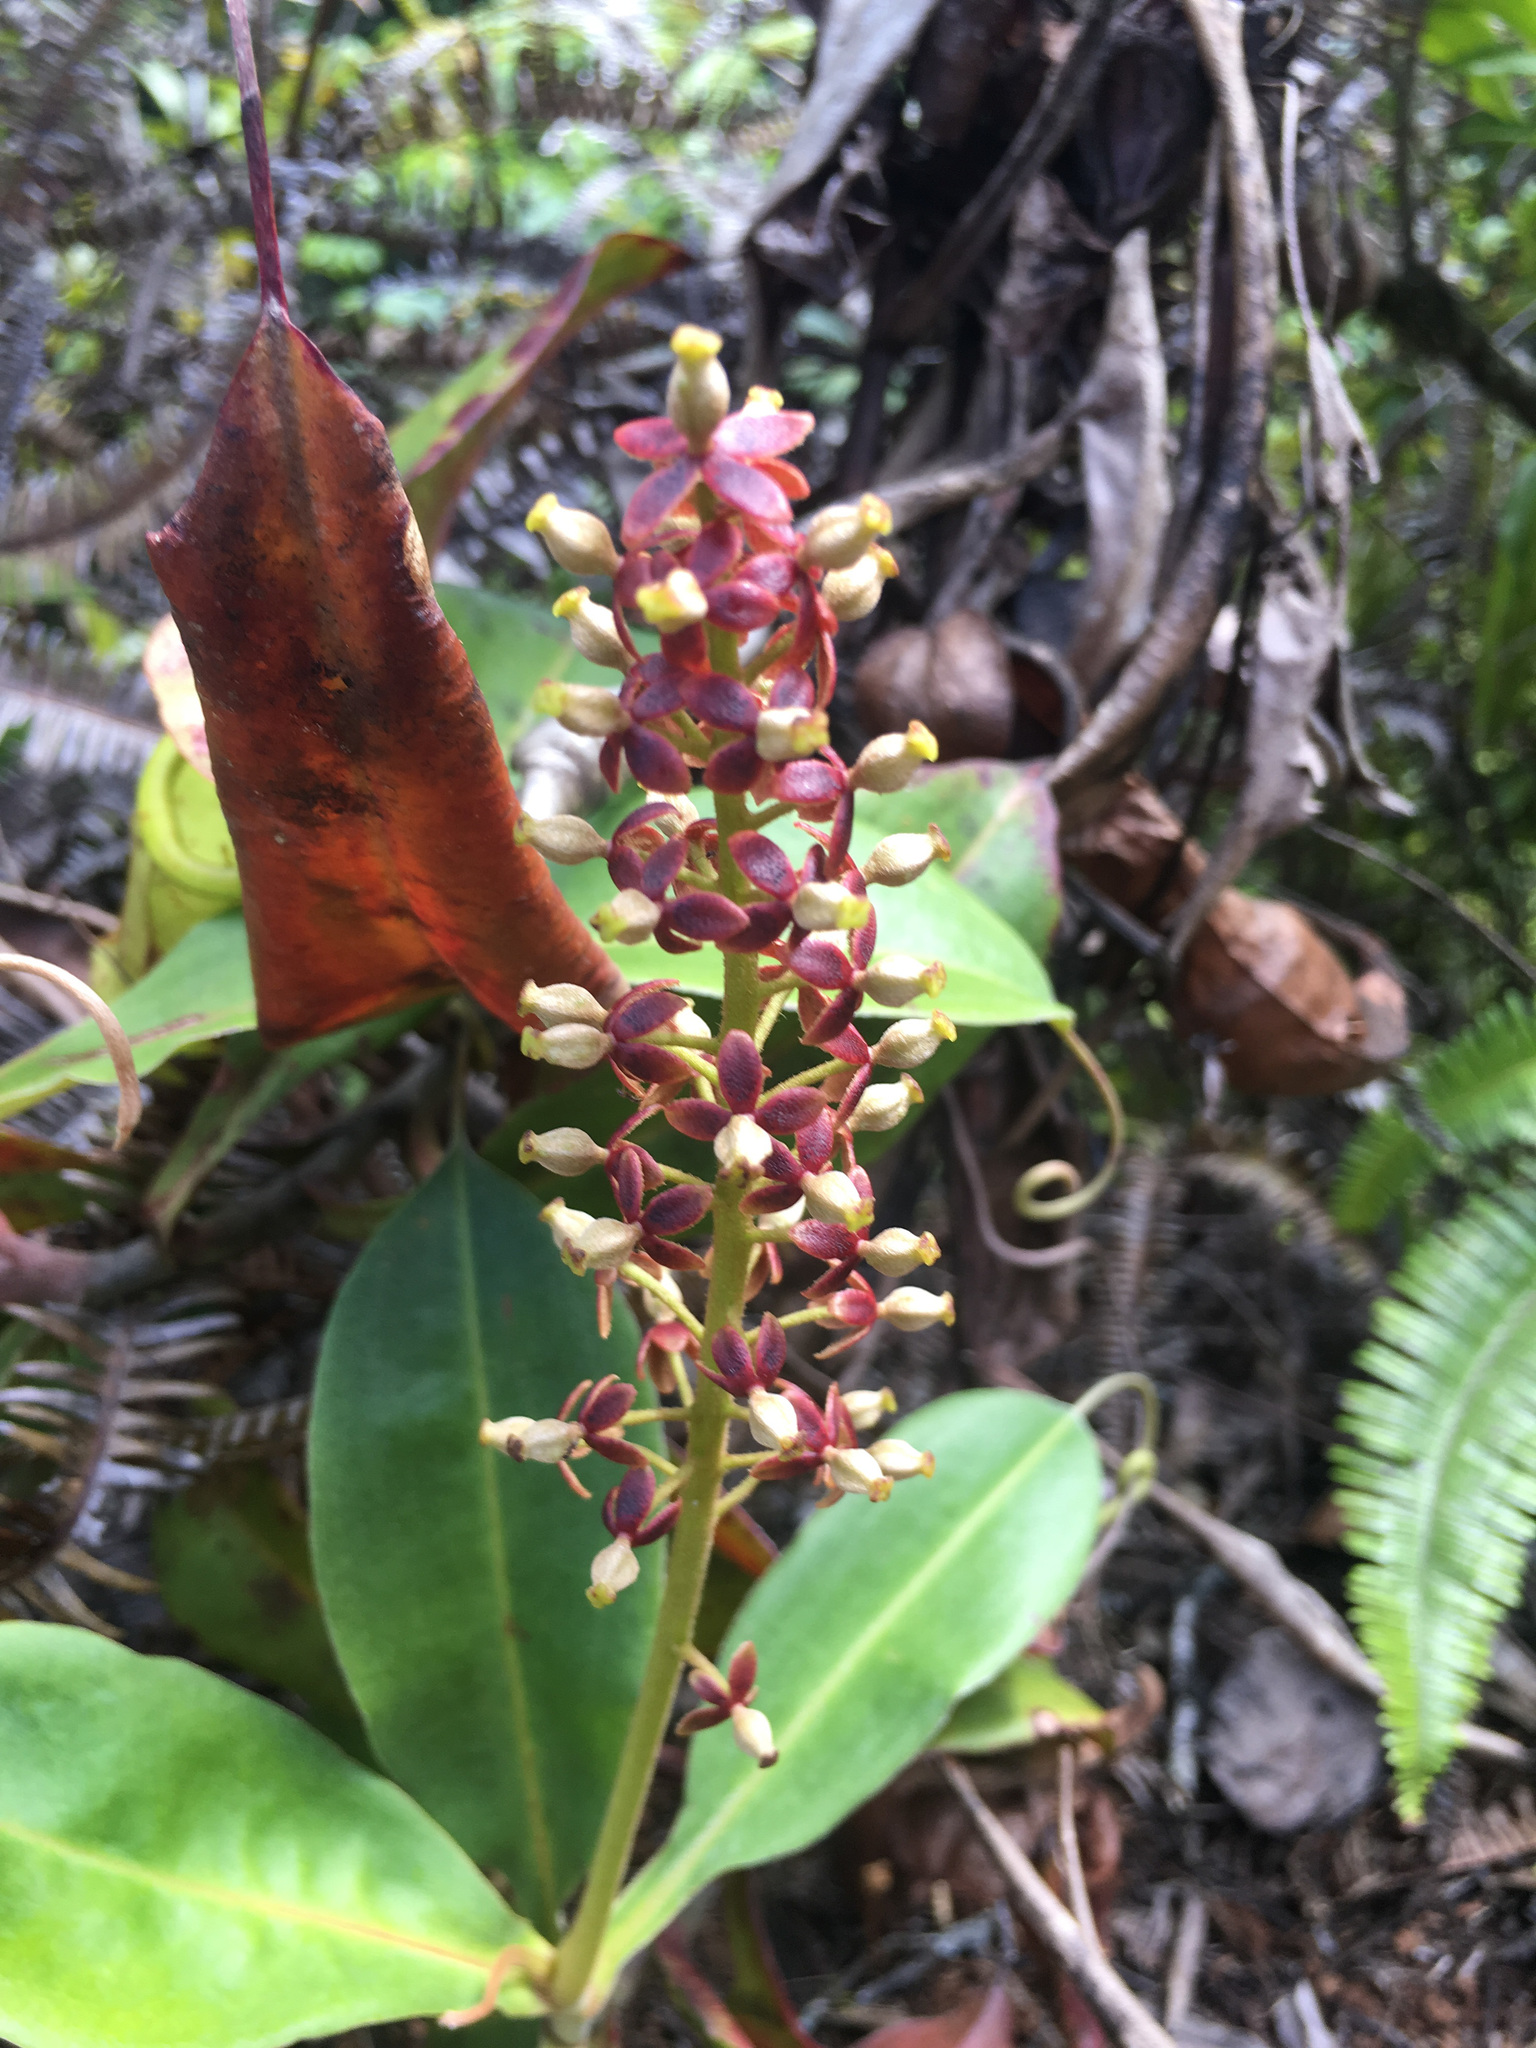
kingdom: Plantae
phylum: Tracheophyta
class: Magnoliopsida
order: Caryophyllales
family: Nepenthaceae
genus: Nepenthes
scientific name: Nepenthes mirabilis
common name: Tropical pitcherplant
